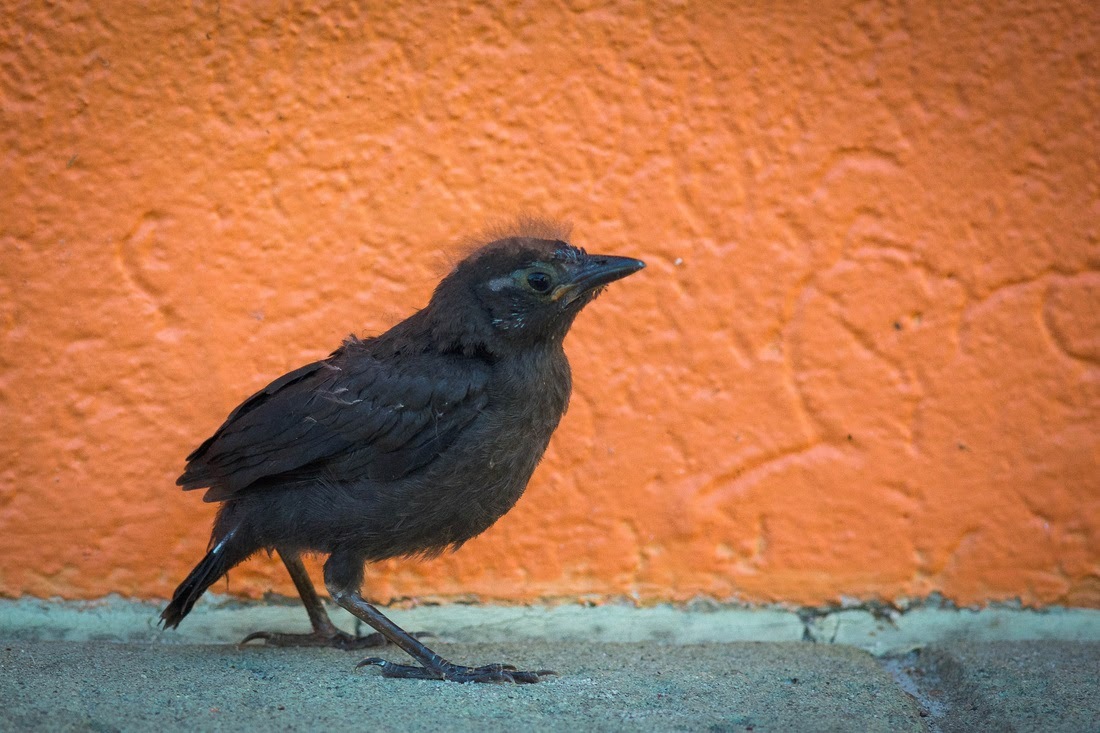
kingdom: Animalia
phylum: Chordata
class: Aves
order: Passeriformes
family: Icteridae
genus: Quiscalus
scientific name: Quiscalus quiscula
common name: Common grackle
